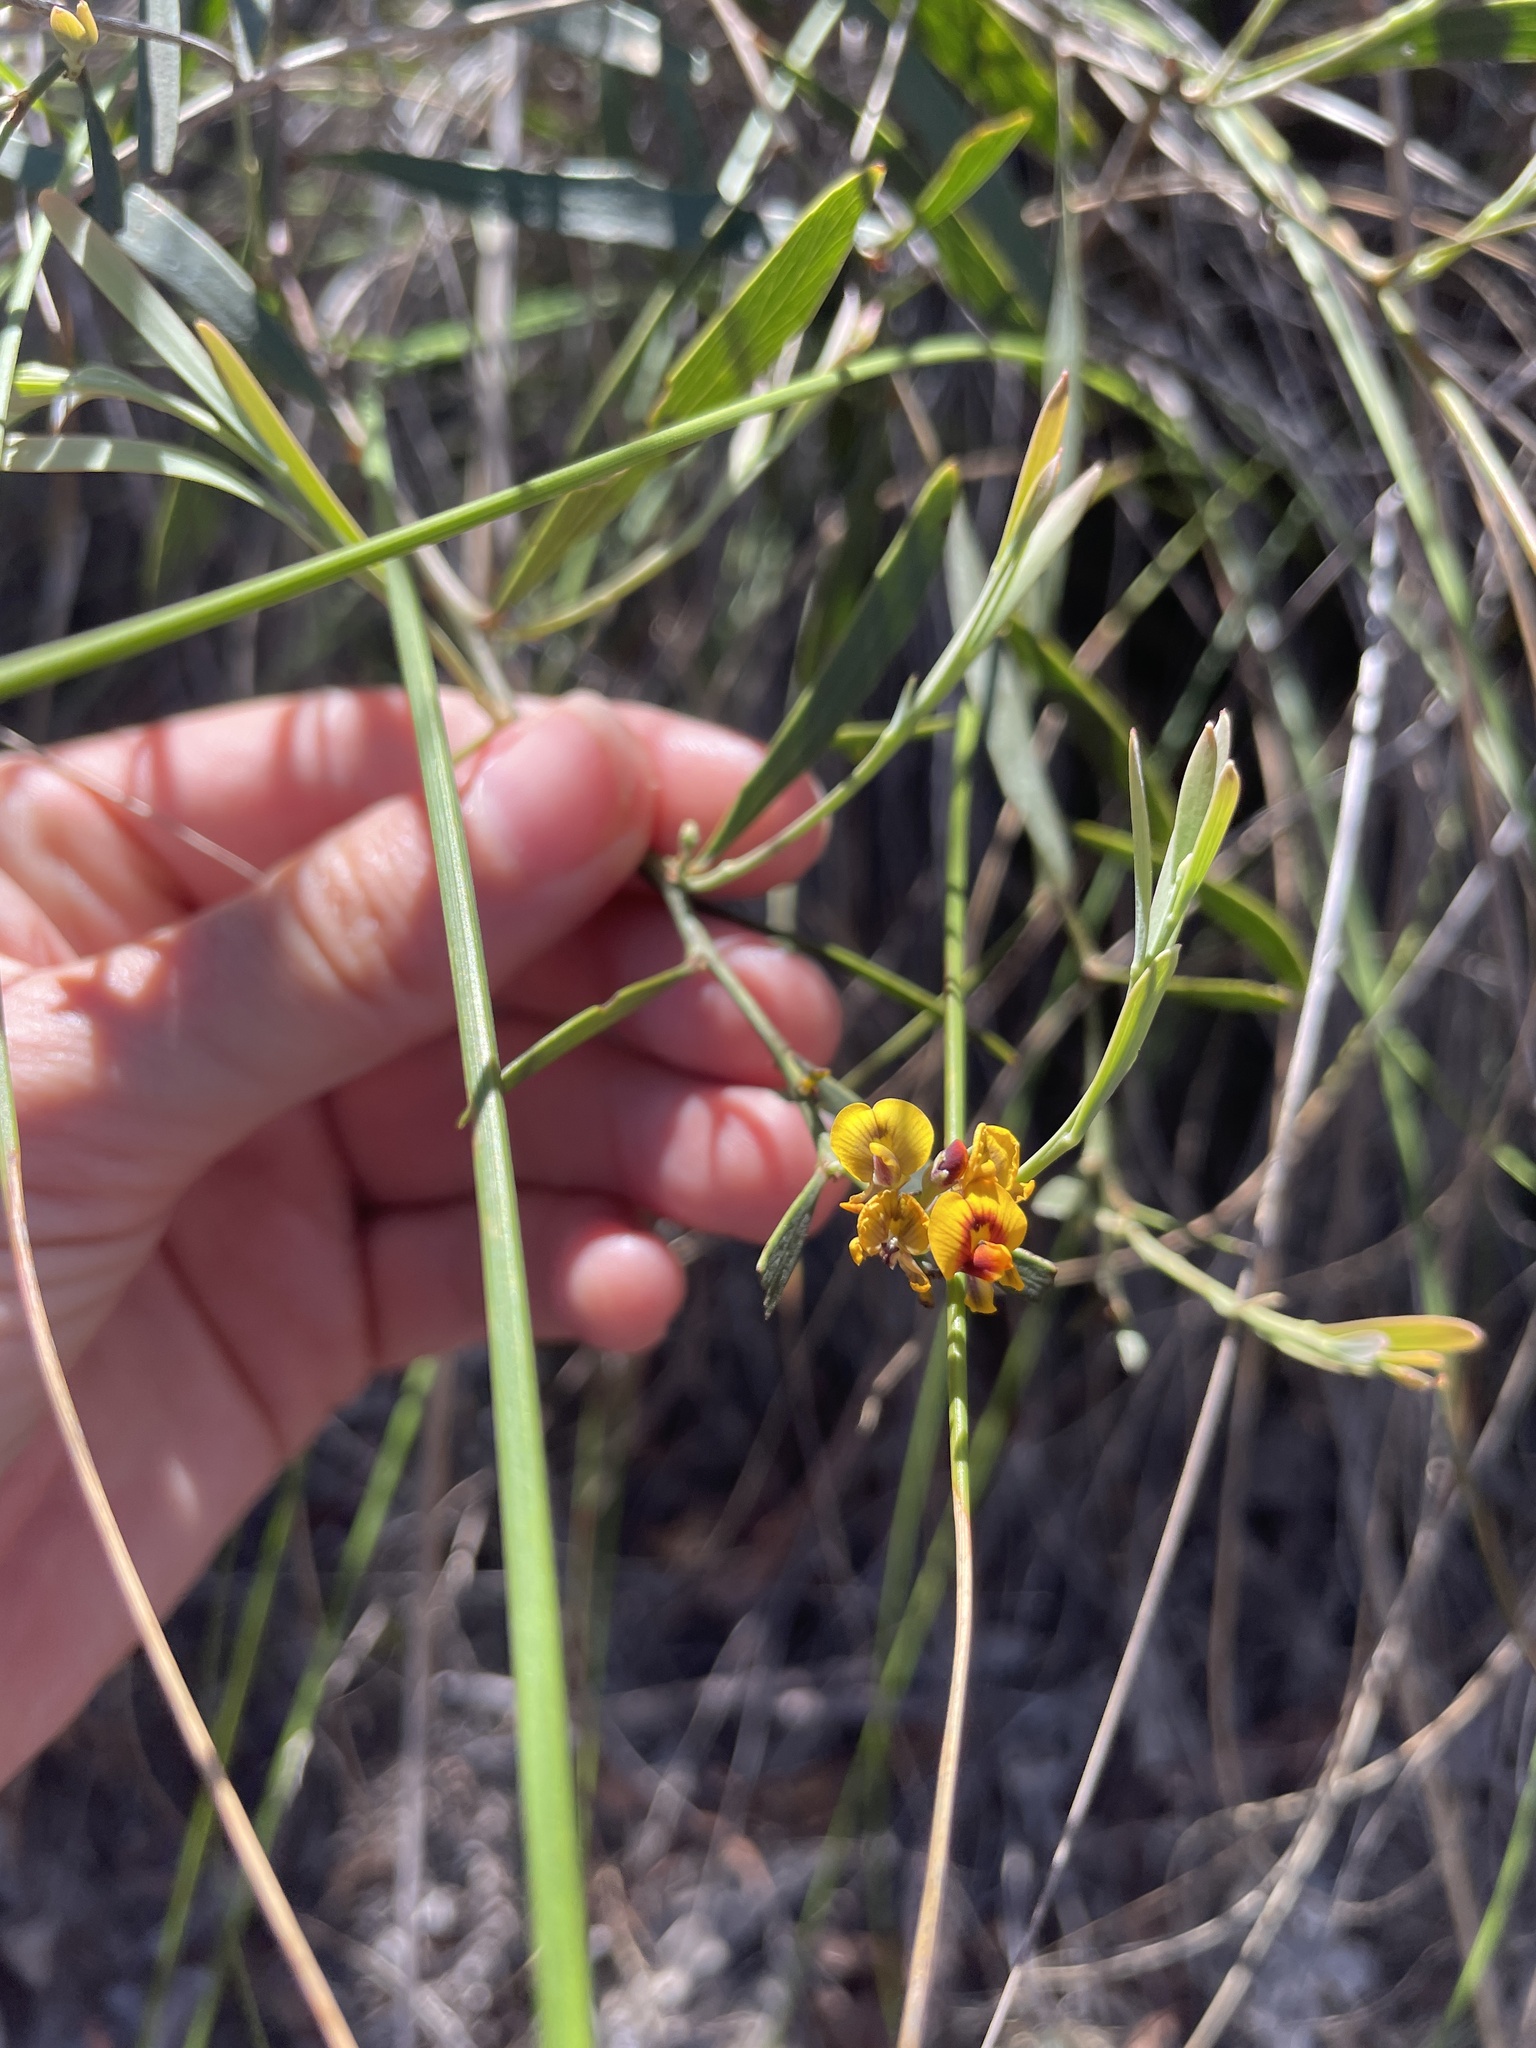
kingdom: Plantae
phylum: Tracheophyta
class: Magnoliopsida
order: Fabales
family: Fabaceae
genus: Daviesia
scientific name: Daviesia
